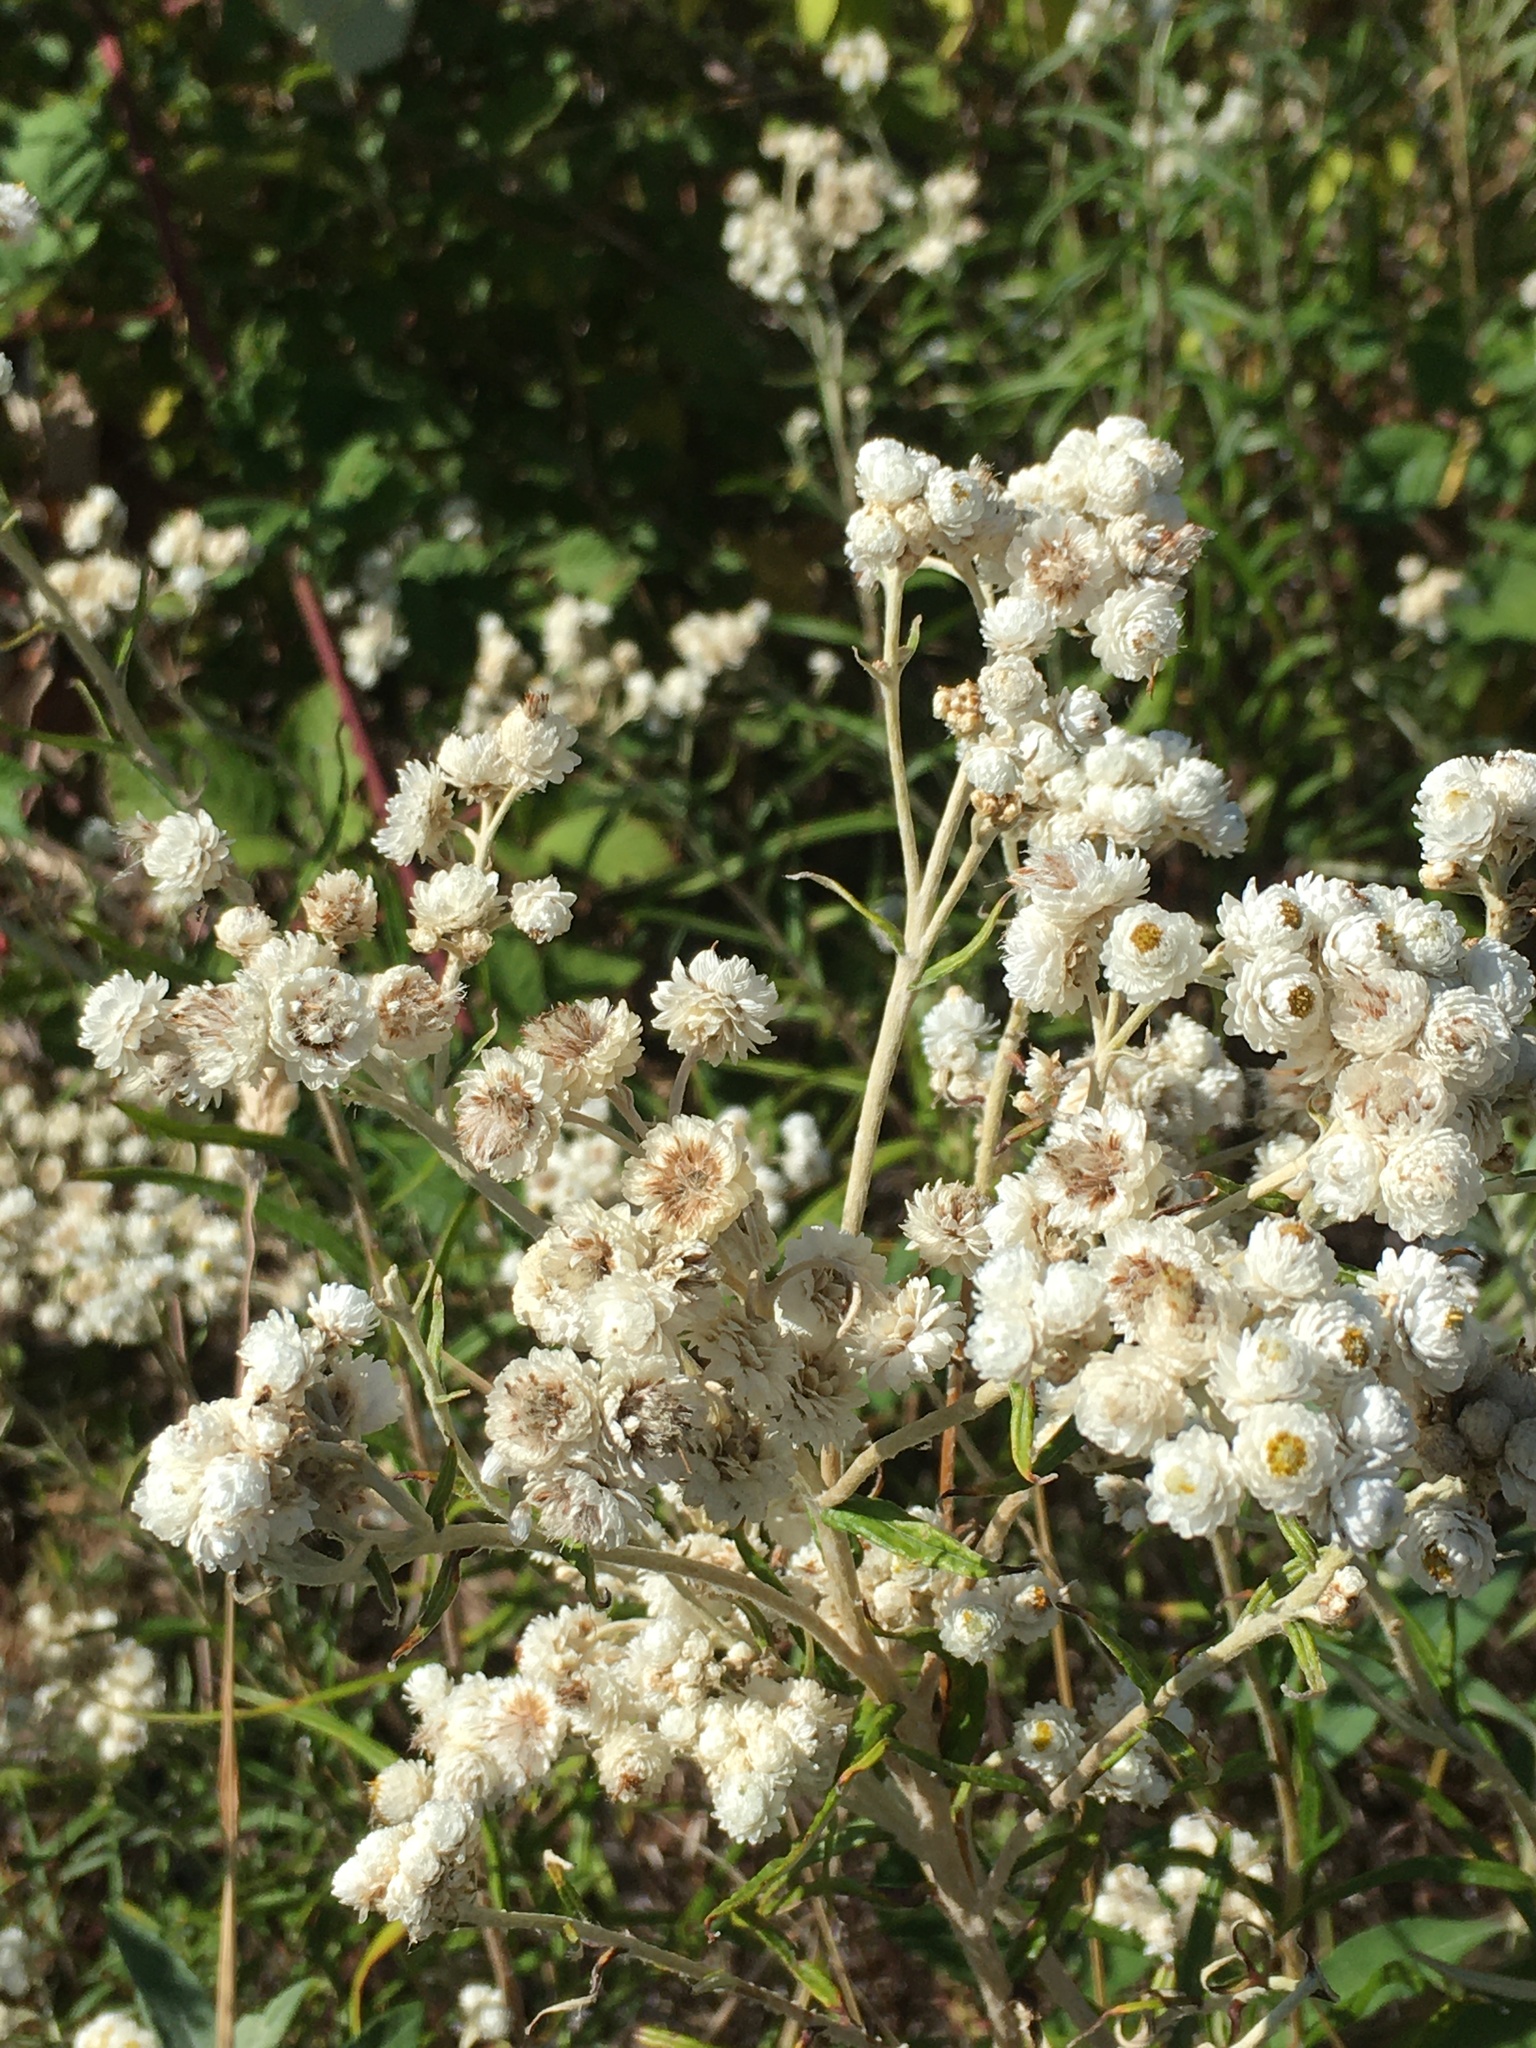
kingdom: Plantae
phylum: Tracheophyta
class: Magnoliopsida
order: Asterales
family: Asteraceae
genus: Anaphalis
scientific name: Anaphalis margaritacea
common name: Pearly everlasting
